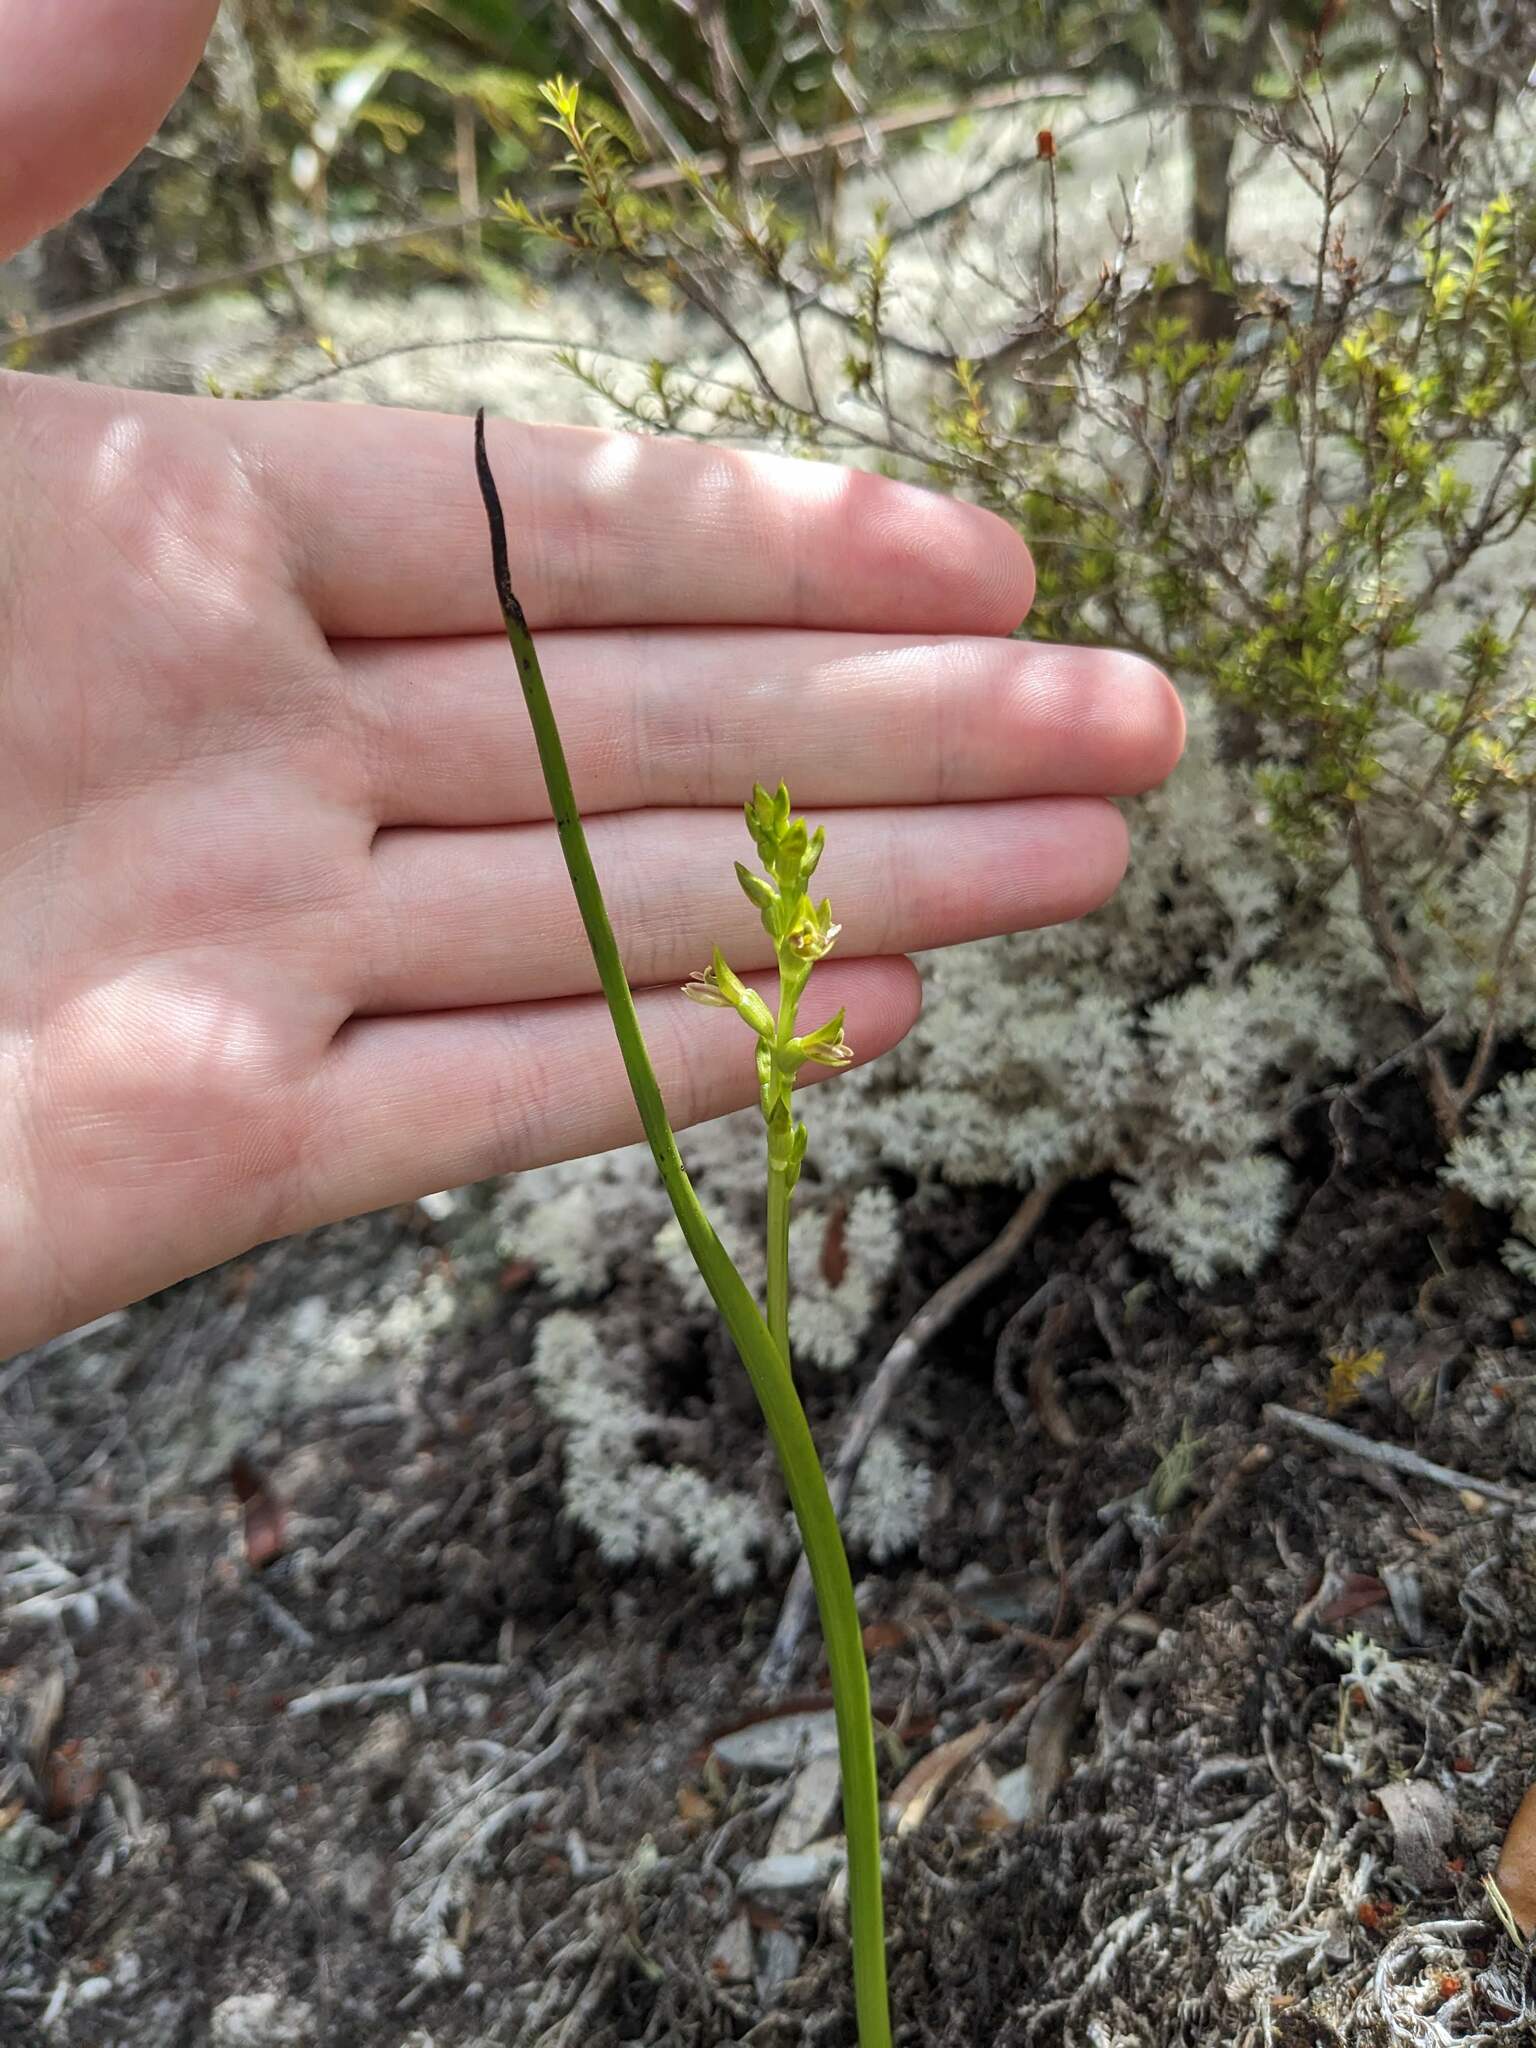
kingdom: Plantae
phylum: Tracheophyta
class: Liliopsida
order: Asparagales
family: Orchidaceae
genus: Prasophyllum
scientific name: Prasophyllum colensoi
